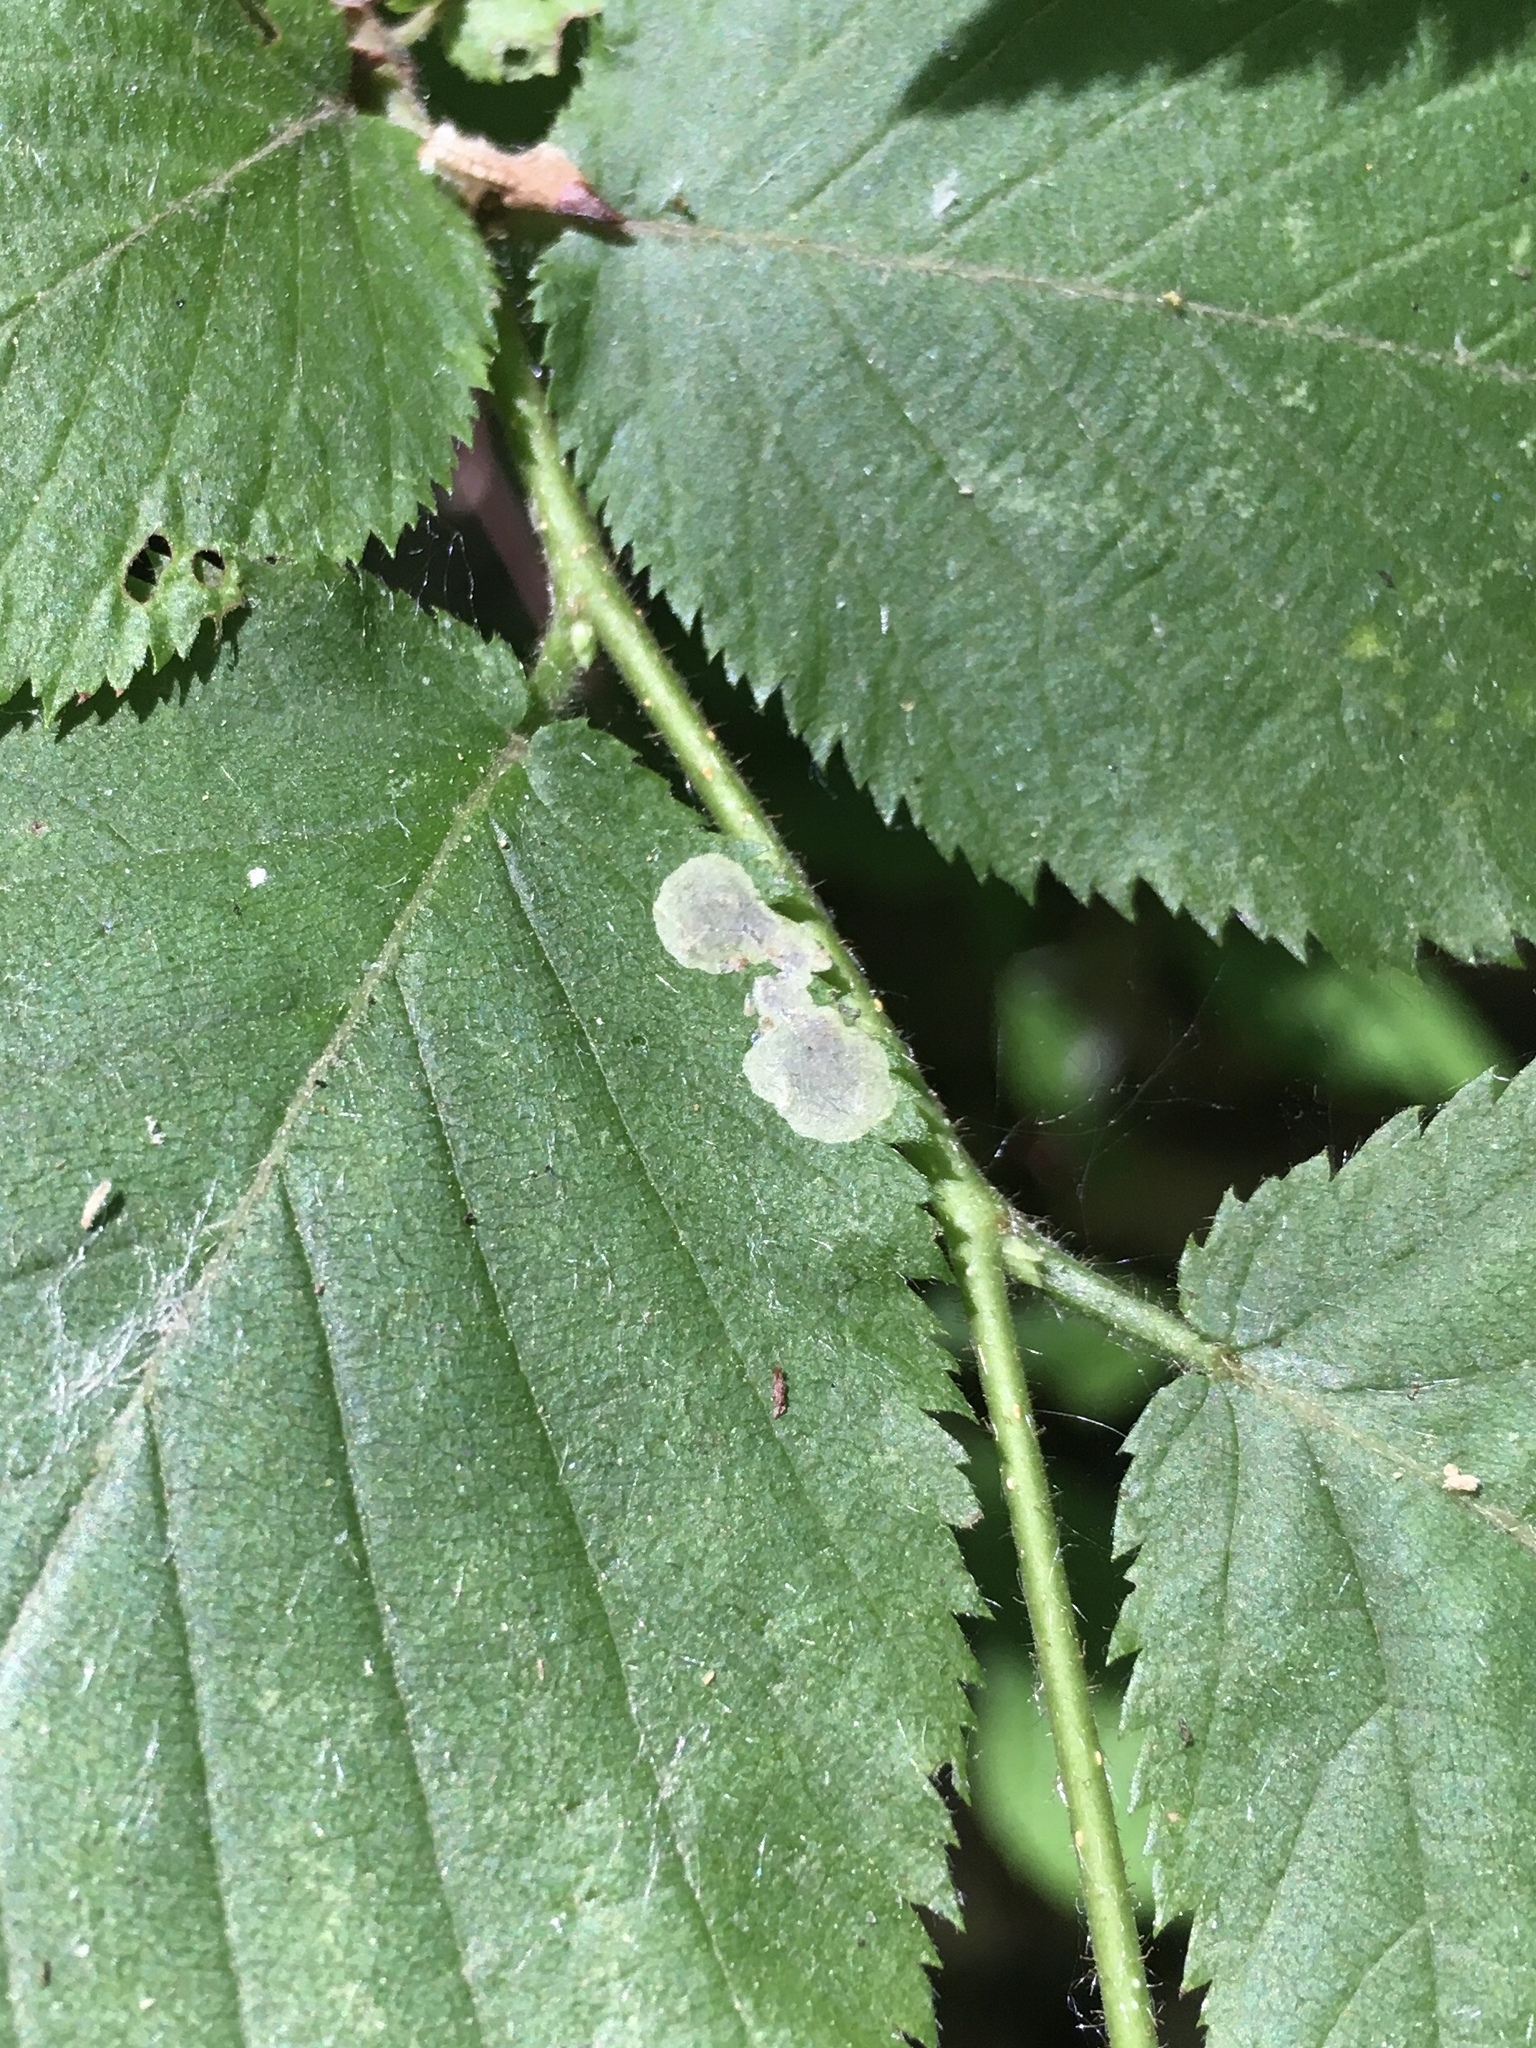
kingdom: Animalia
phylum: Arthropoda
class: Insecta
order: Lepidoptera
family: Gracillariidae
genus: Cameraria
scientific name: Cameraria
